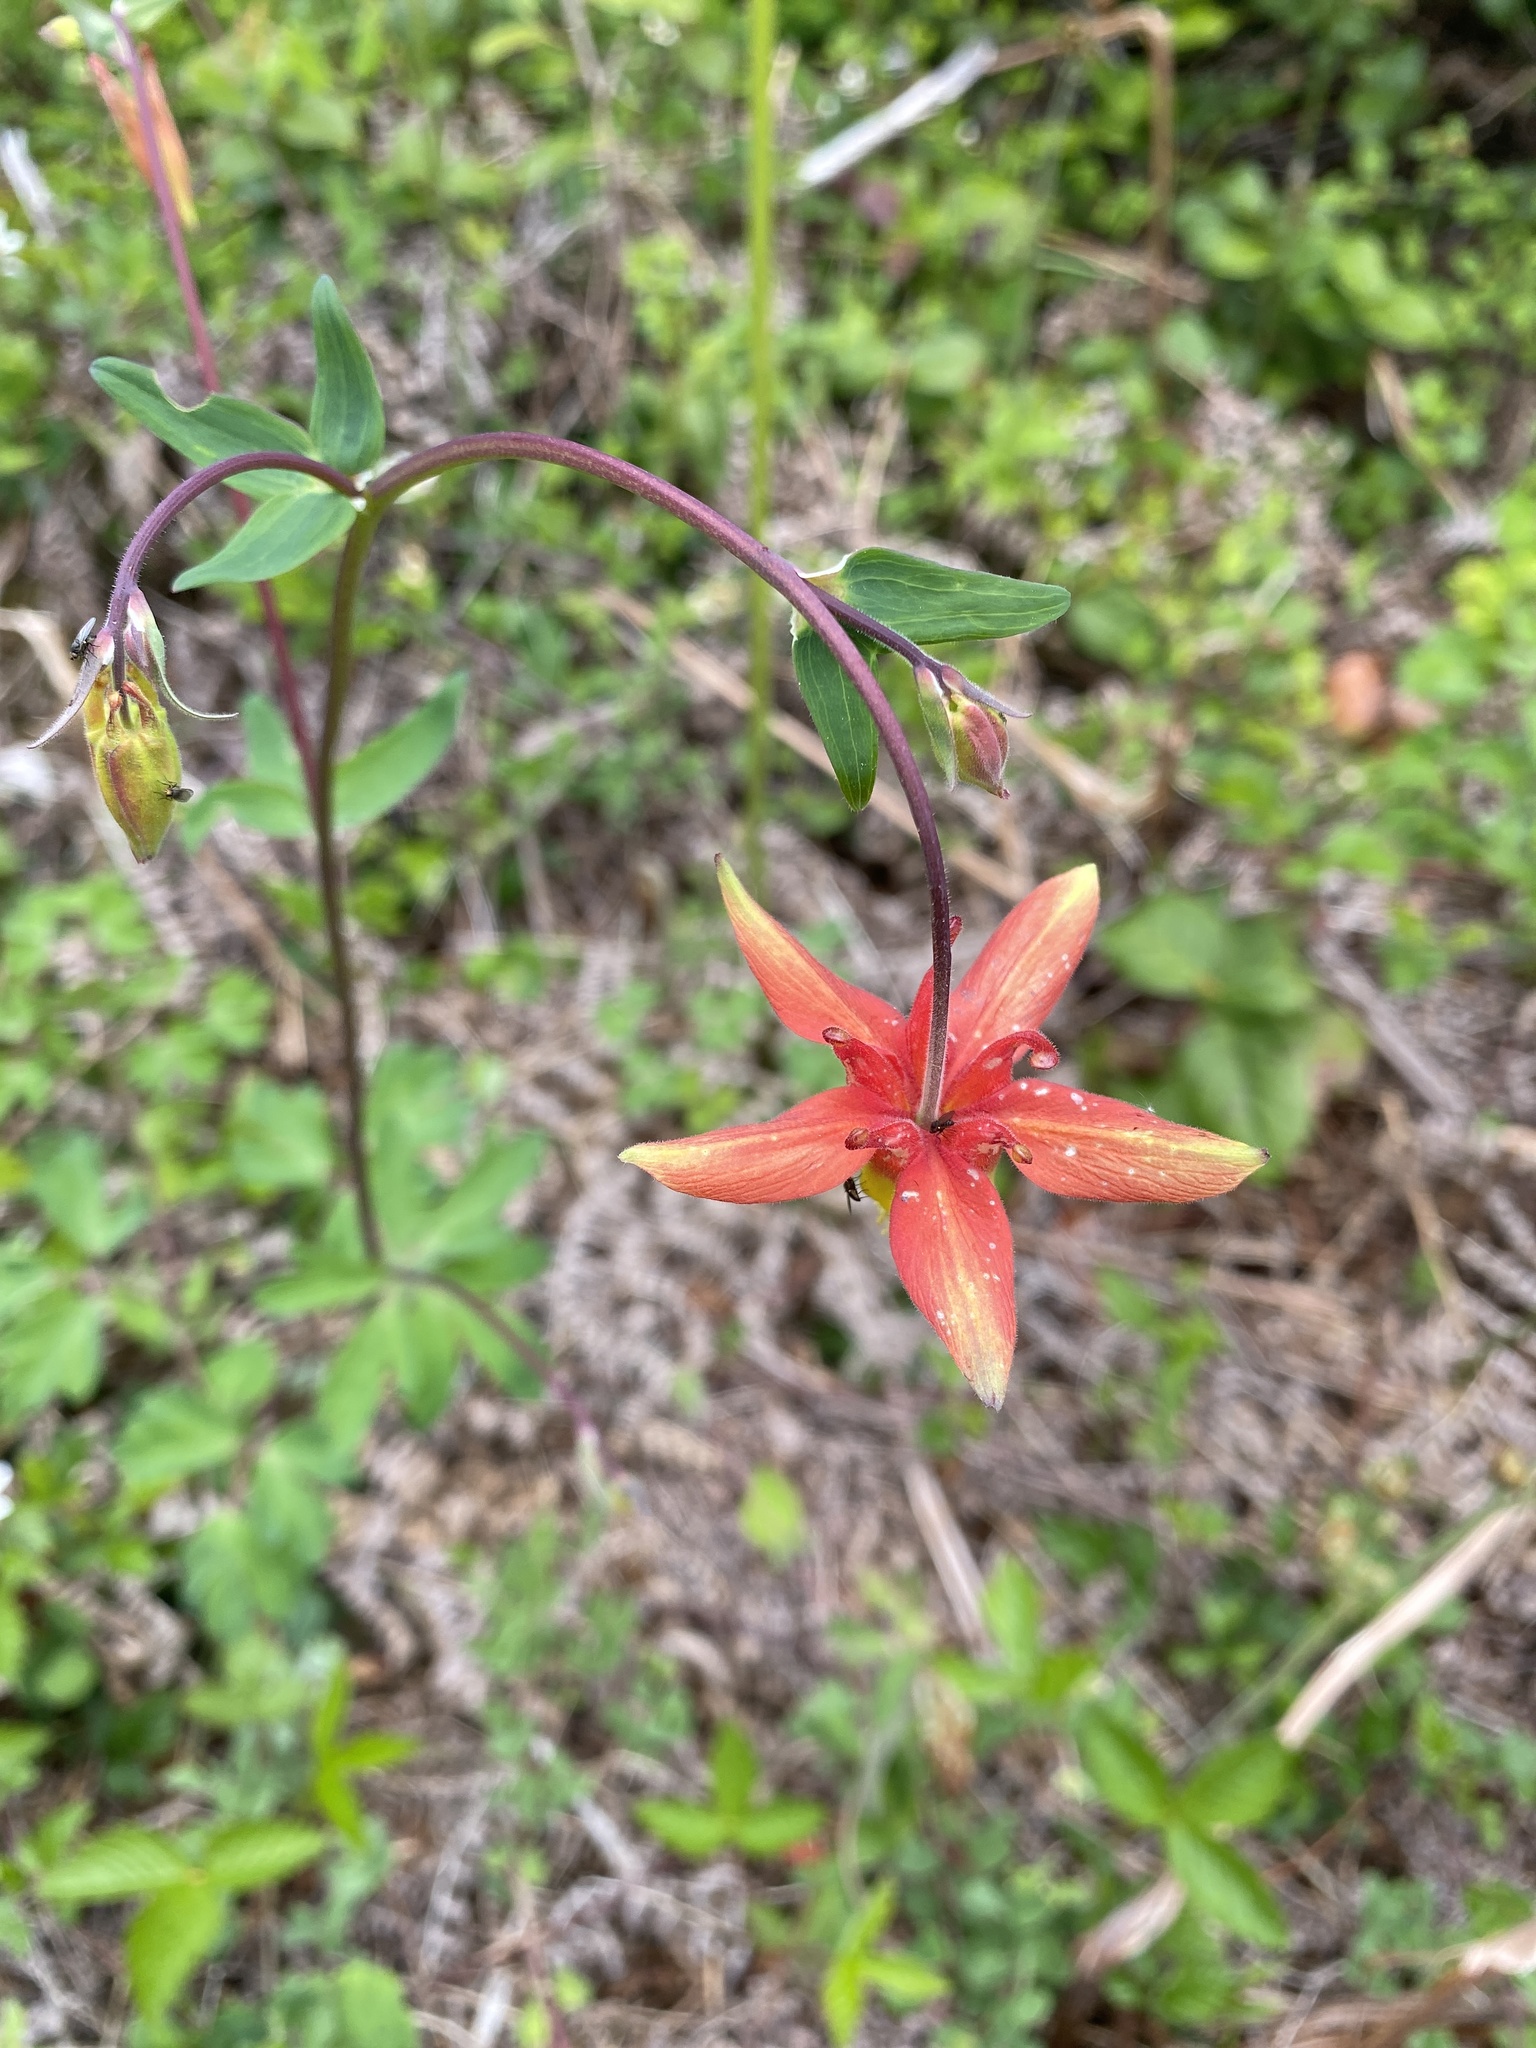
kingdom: Plantae
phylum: Tracheophyta
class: Magnoliopsida
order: Ranunculales
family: Ranunculaceae
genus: Aquilegia
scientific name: Aquilegia formosa
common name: Sitka columbine
